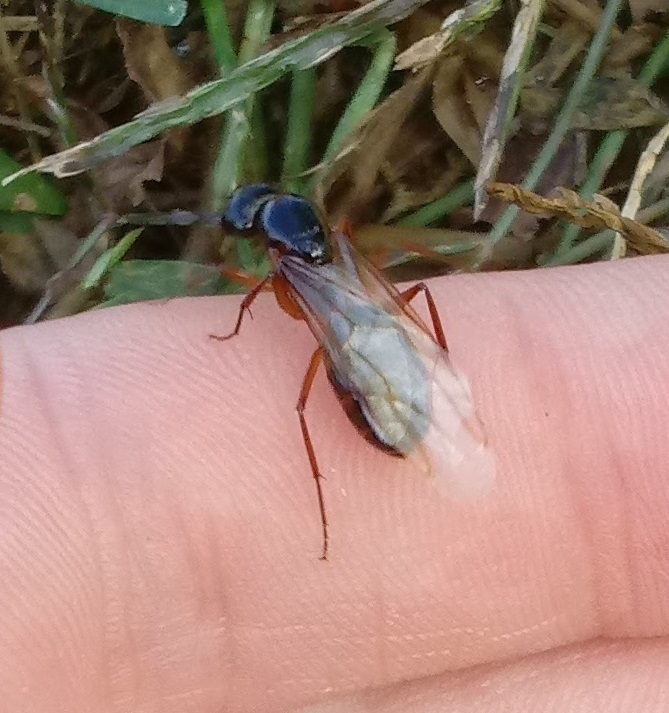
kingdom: Animalia
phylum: Arthropoda
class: Insecta
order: Hymenoptera
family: Formicidae
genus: Camponotus
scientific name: Camponotus americanus
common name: American carpenter ant
